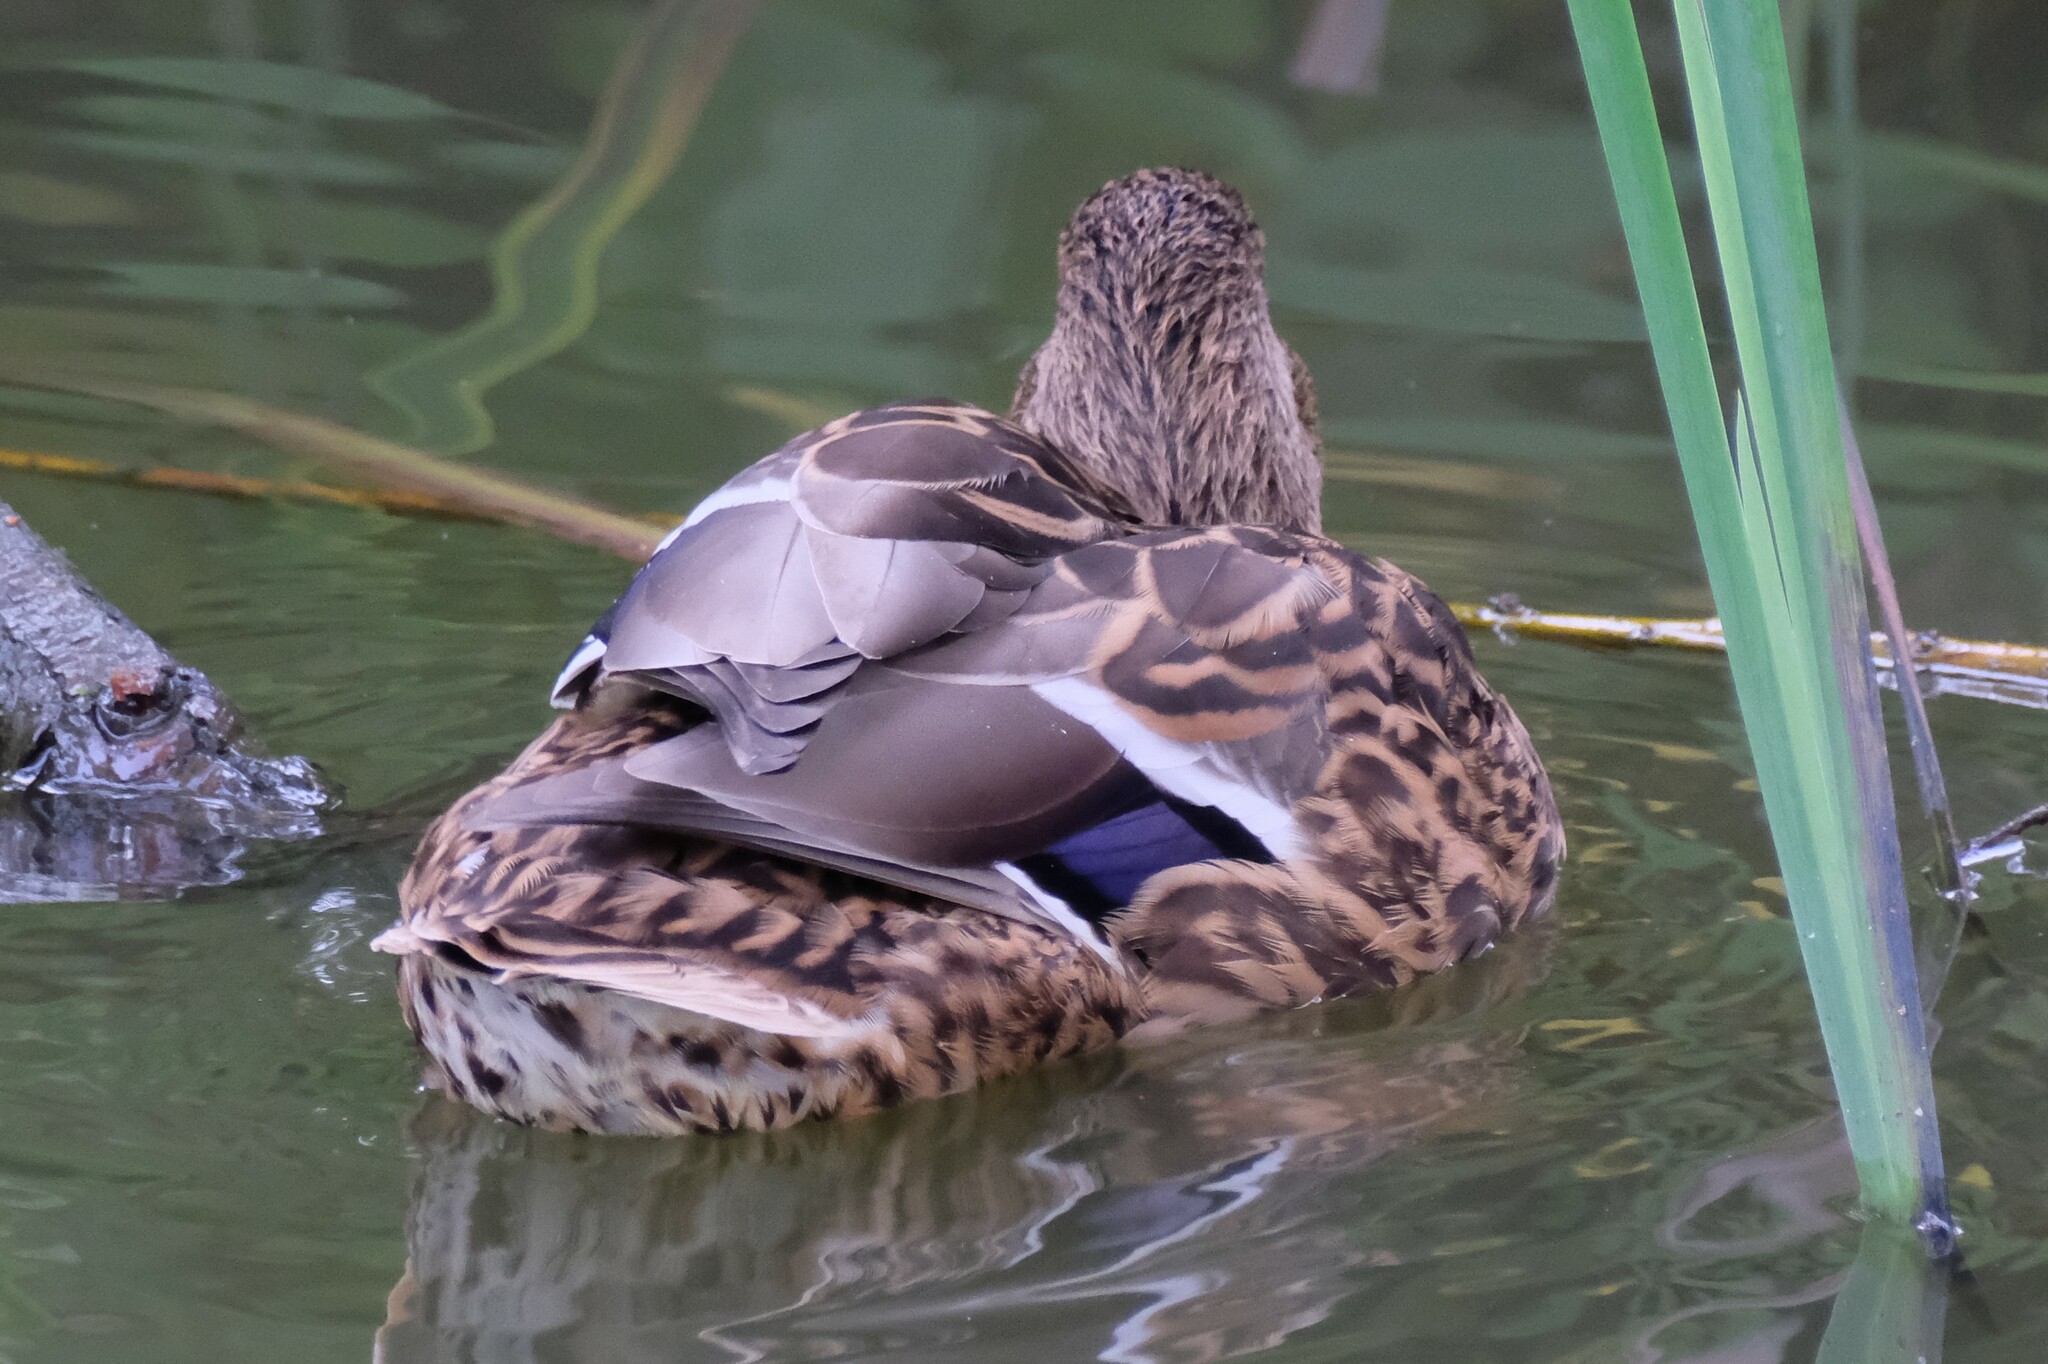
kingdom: Animalia
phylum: Chordata
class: Aves
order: Anseriformes
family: Anatidae
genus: Anas
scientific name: Anas platyrhynchos
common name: Mallard
